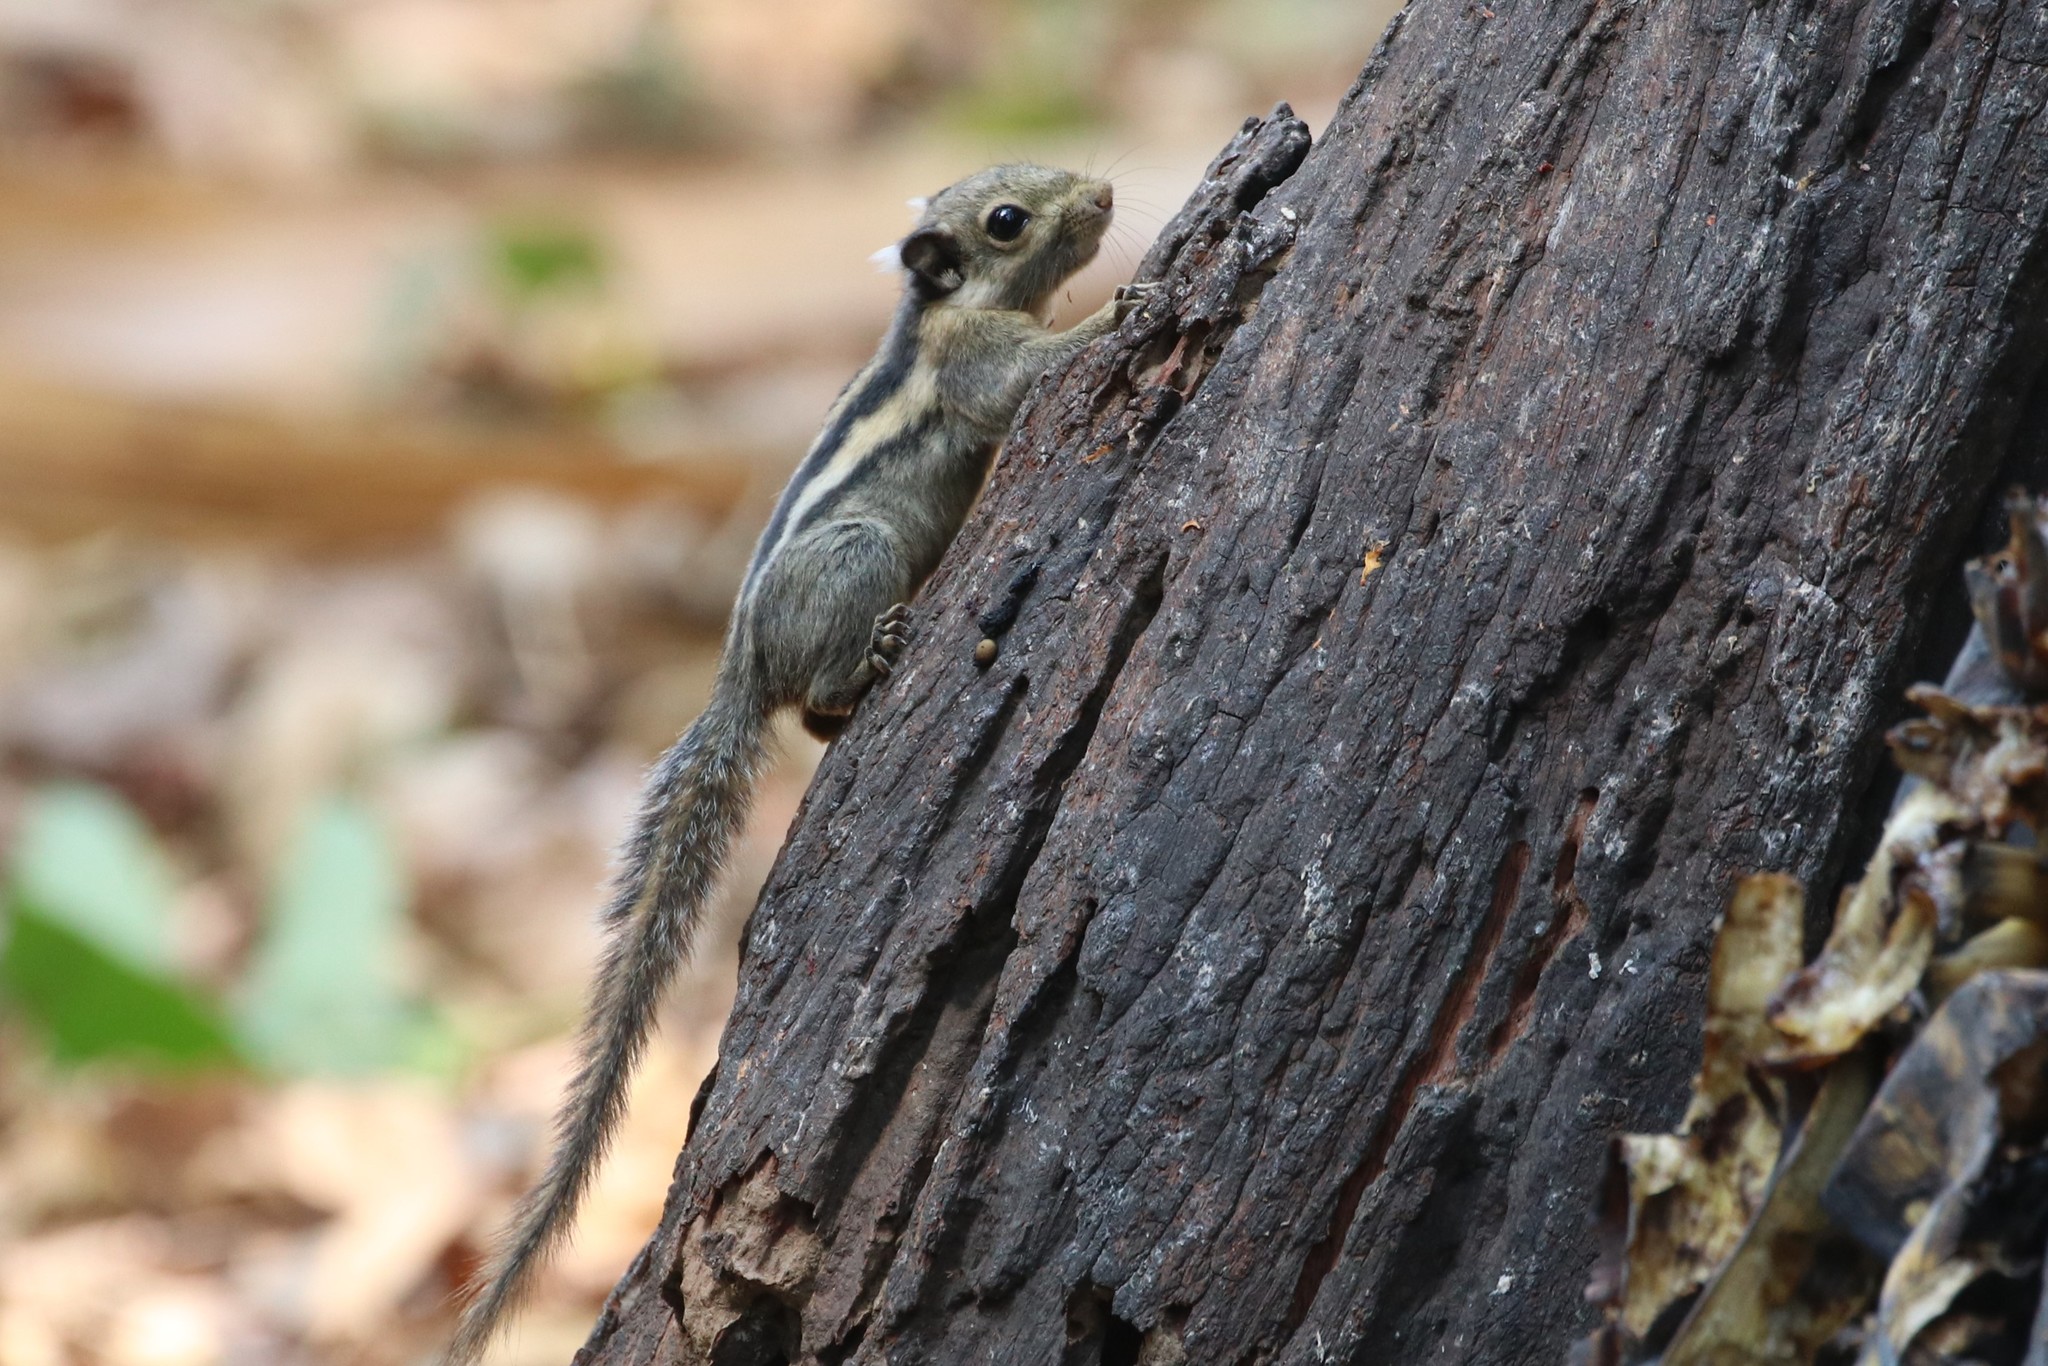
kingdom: Animalia
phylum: Chordata
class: Mammalia
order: Rodentia
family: Sciuridae
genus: Tamiops
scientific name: Tamiops mcclellandii
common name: Himalayan striped squirrel
